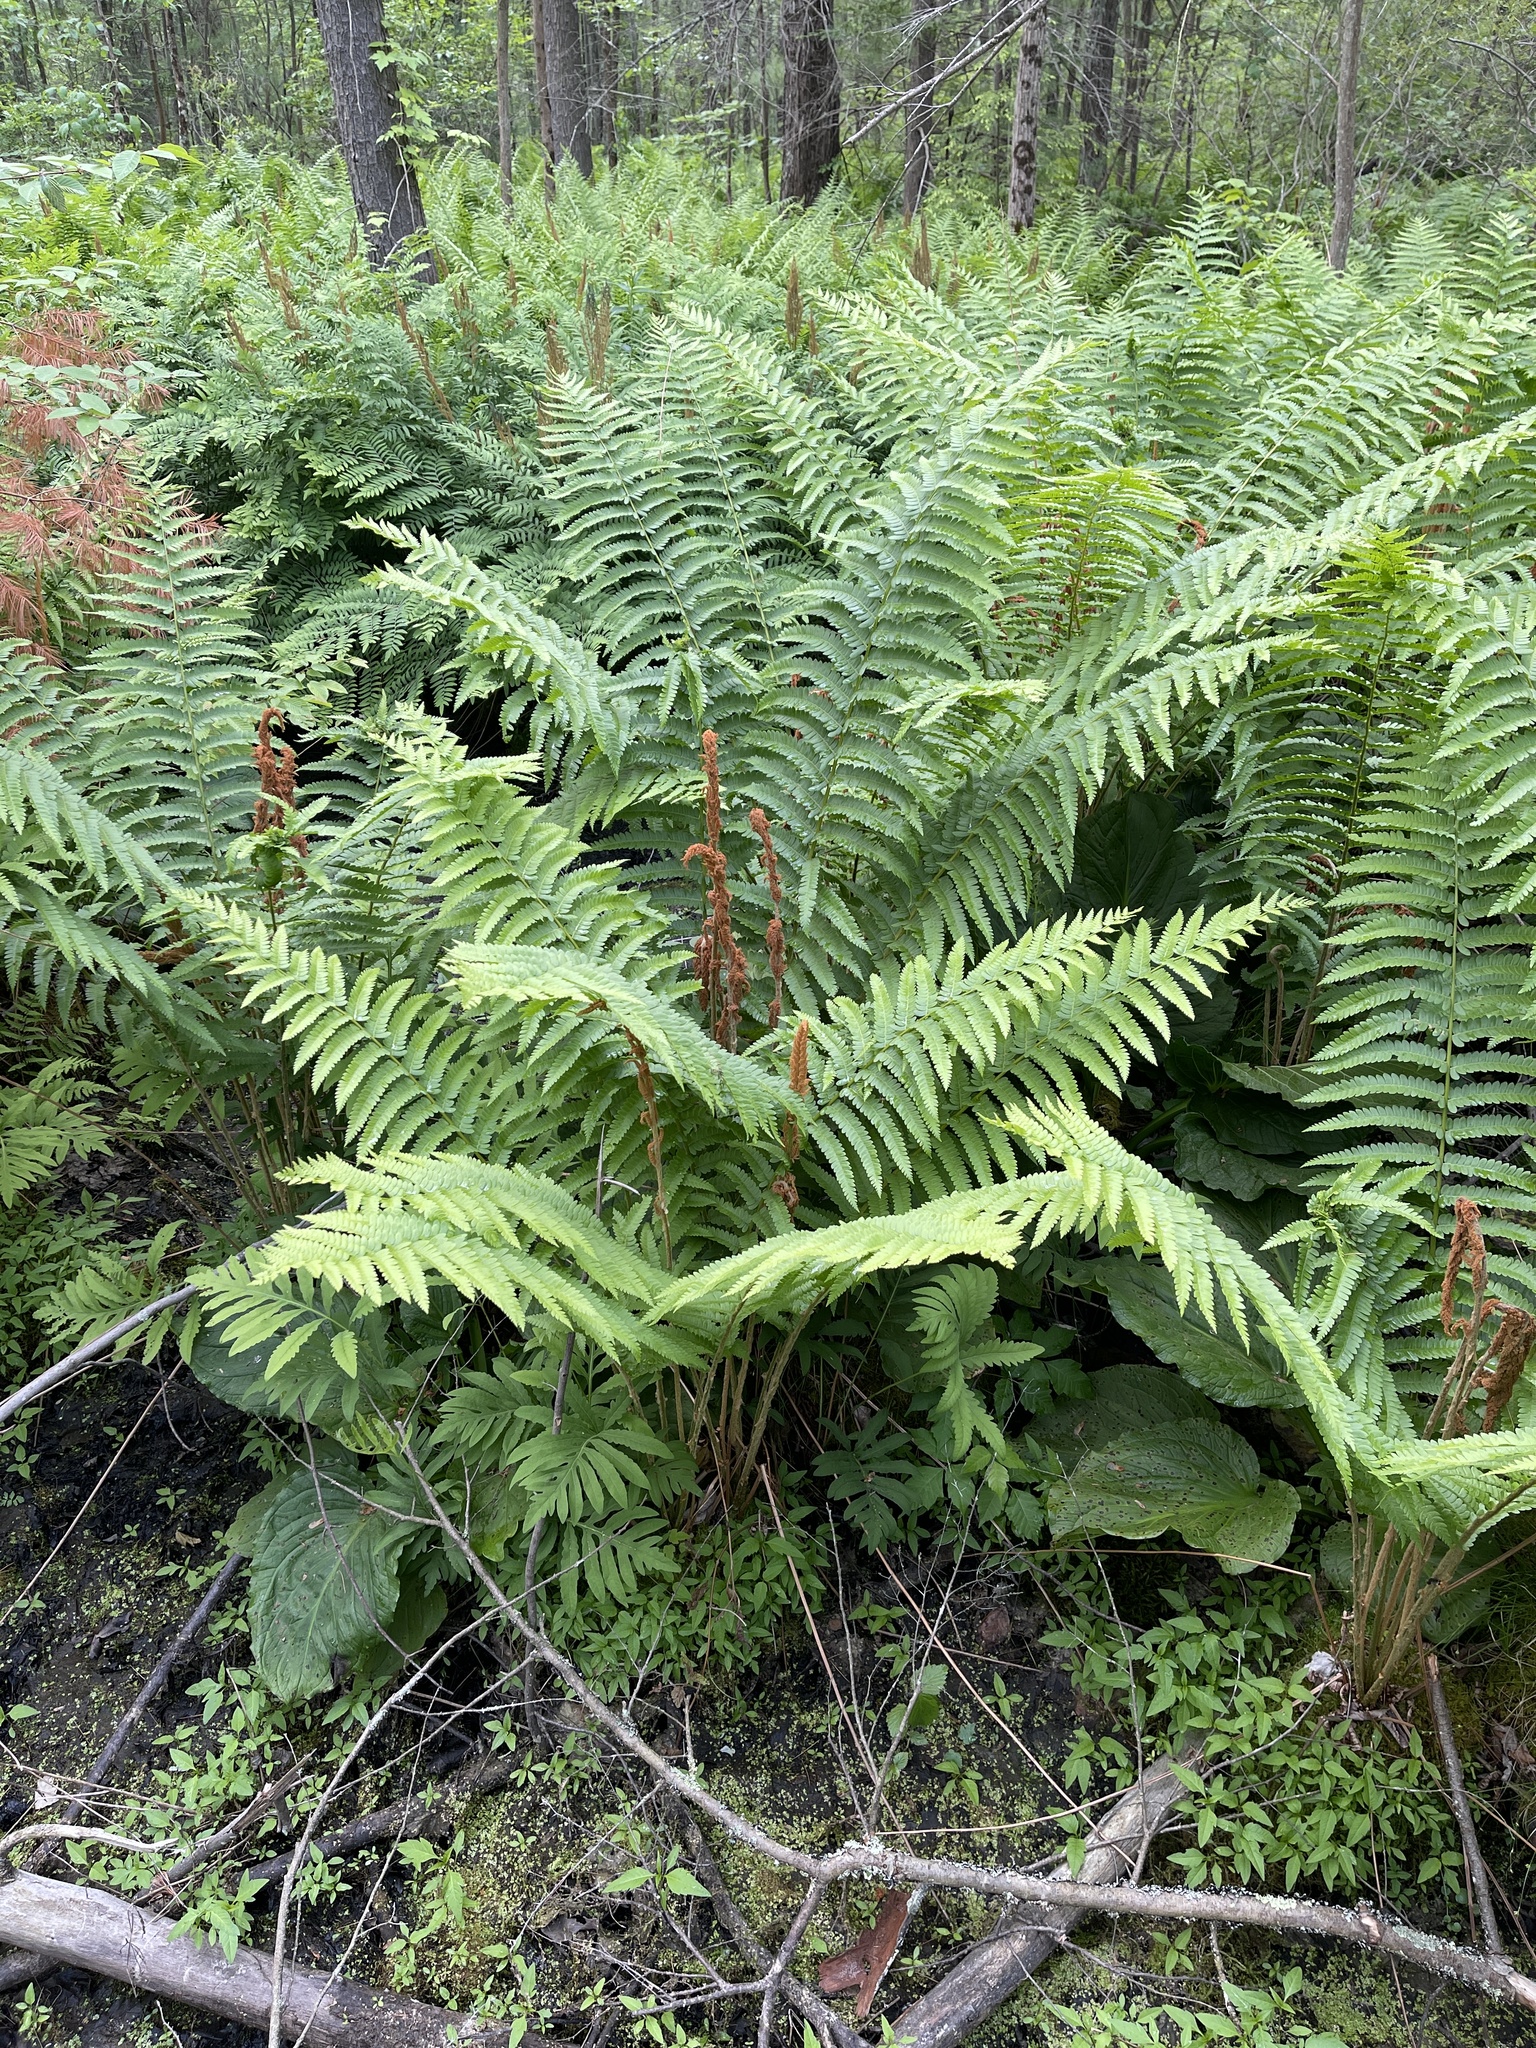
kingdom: Plantae
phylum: Tracheophyta
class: Polypodiopsida
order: Osmundales
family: Osmundaceae
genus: Osmundastrum
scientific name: Osmundastrum cinnamomeum
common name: Cinnamon fern
